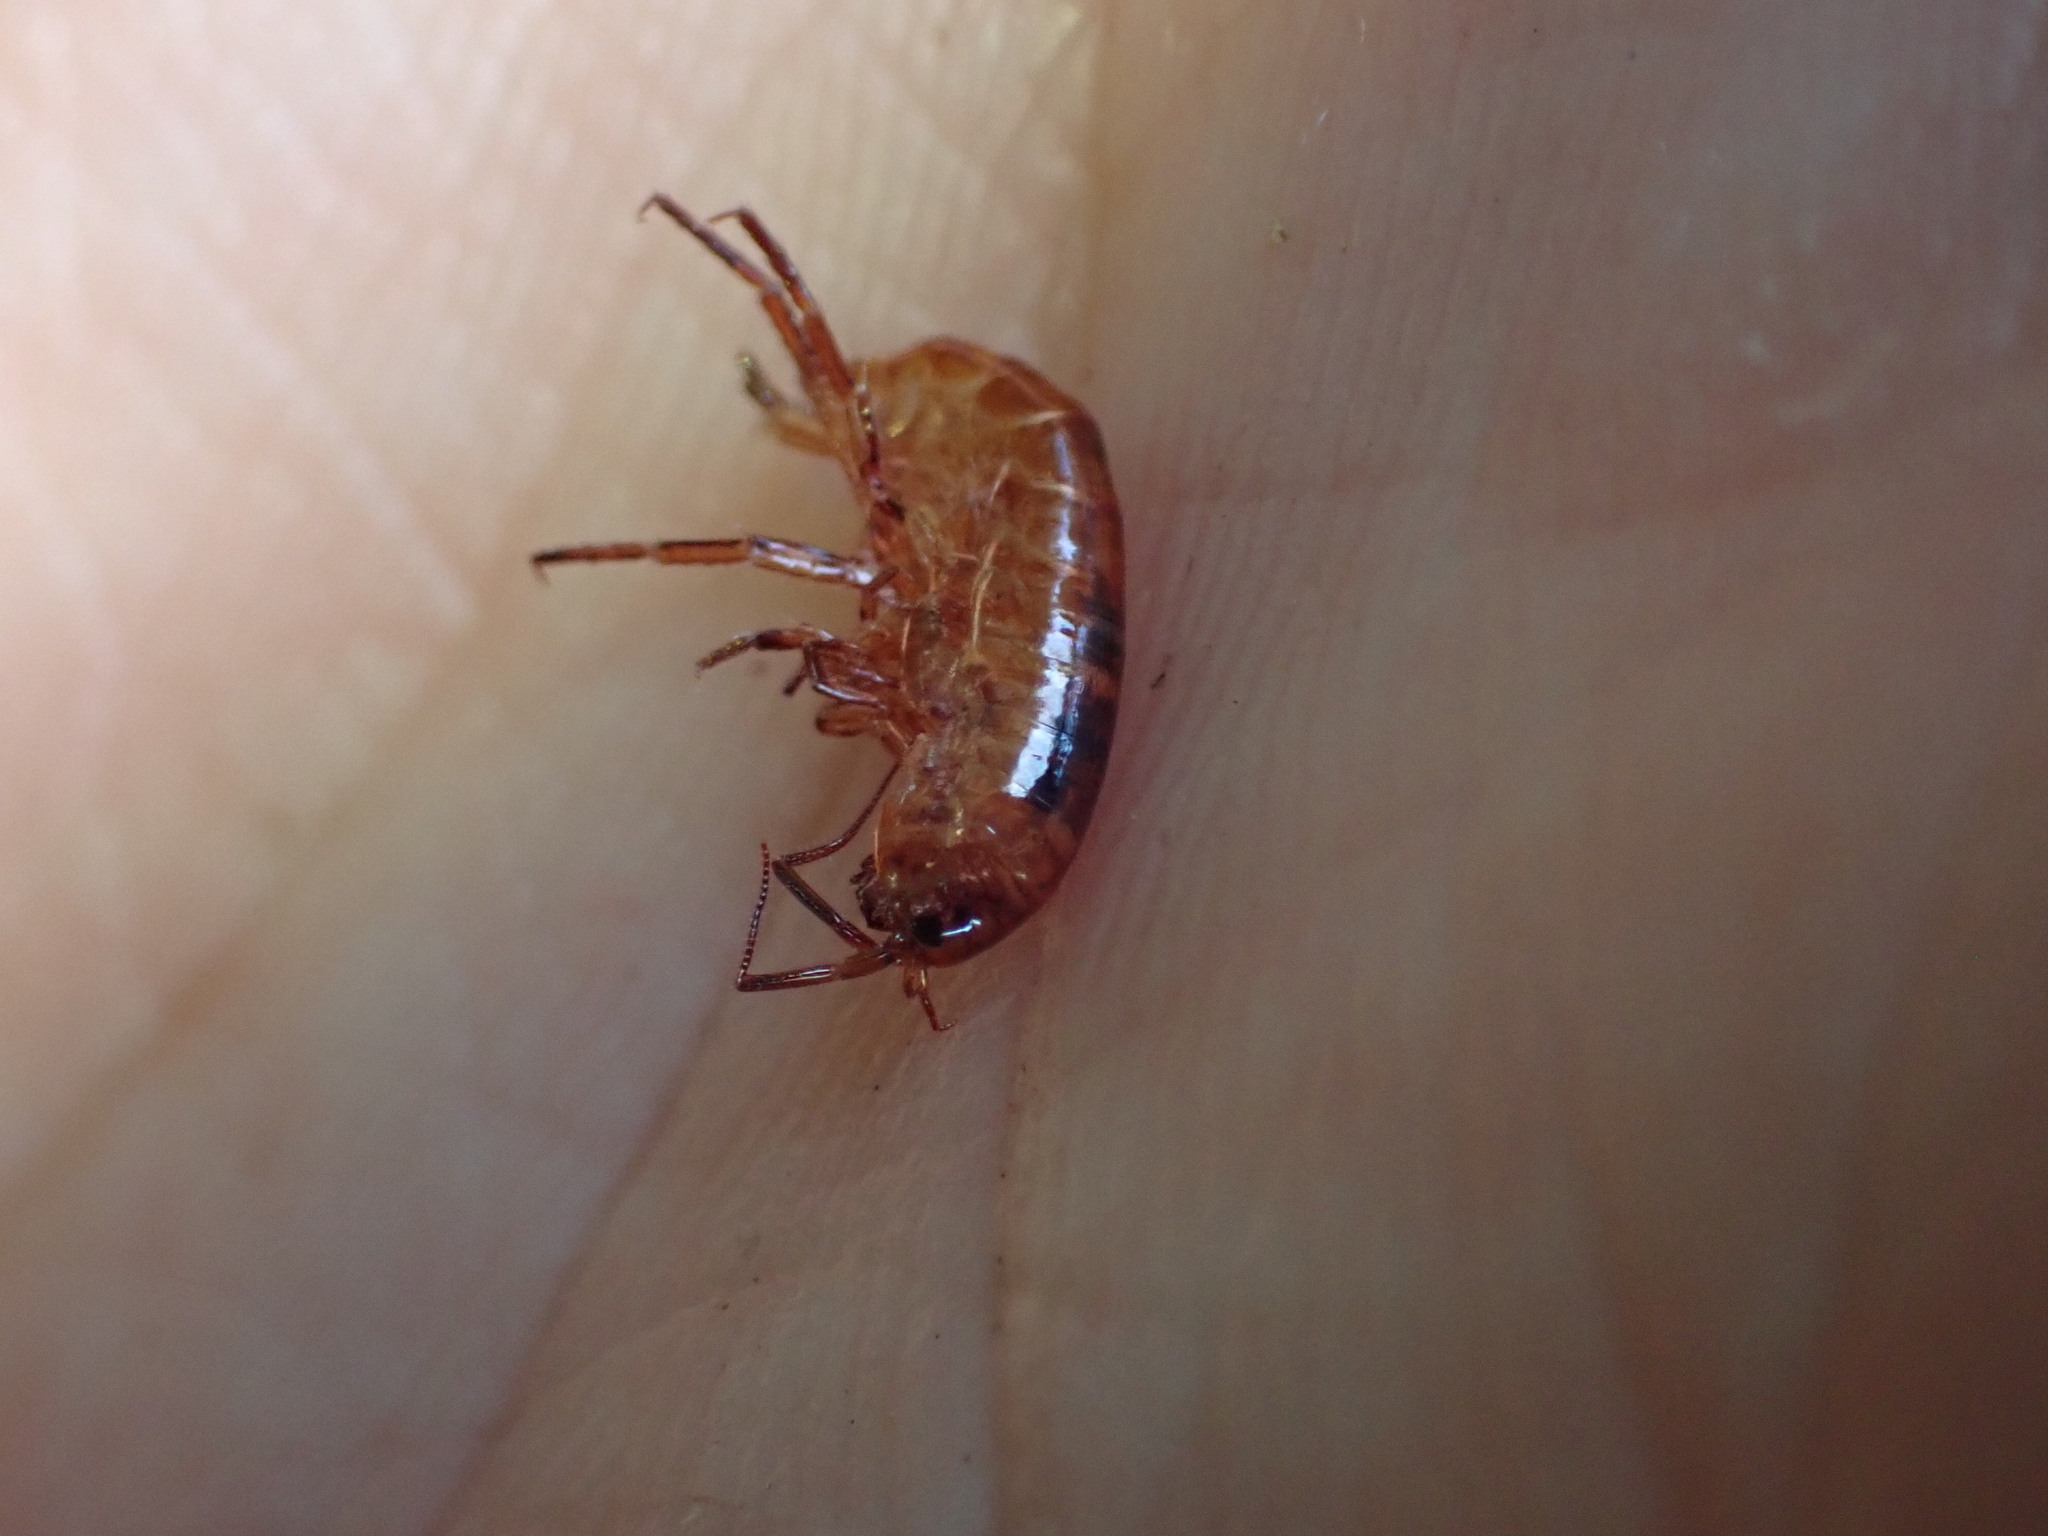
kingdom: Animalia
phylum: Arthropoda
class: Malacostraca
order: Amphipoda
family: Arcitalitridae
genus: Arcitalitrus
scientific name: Arcitalitrus dorrieni
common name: Landhopper
